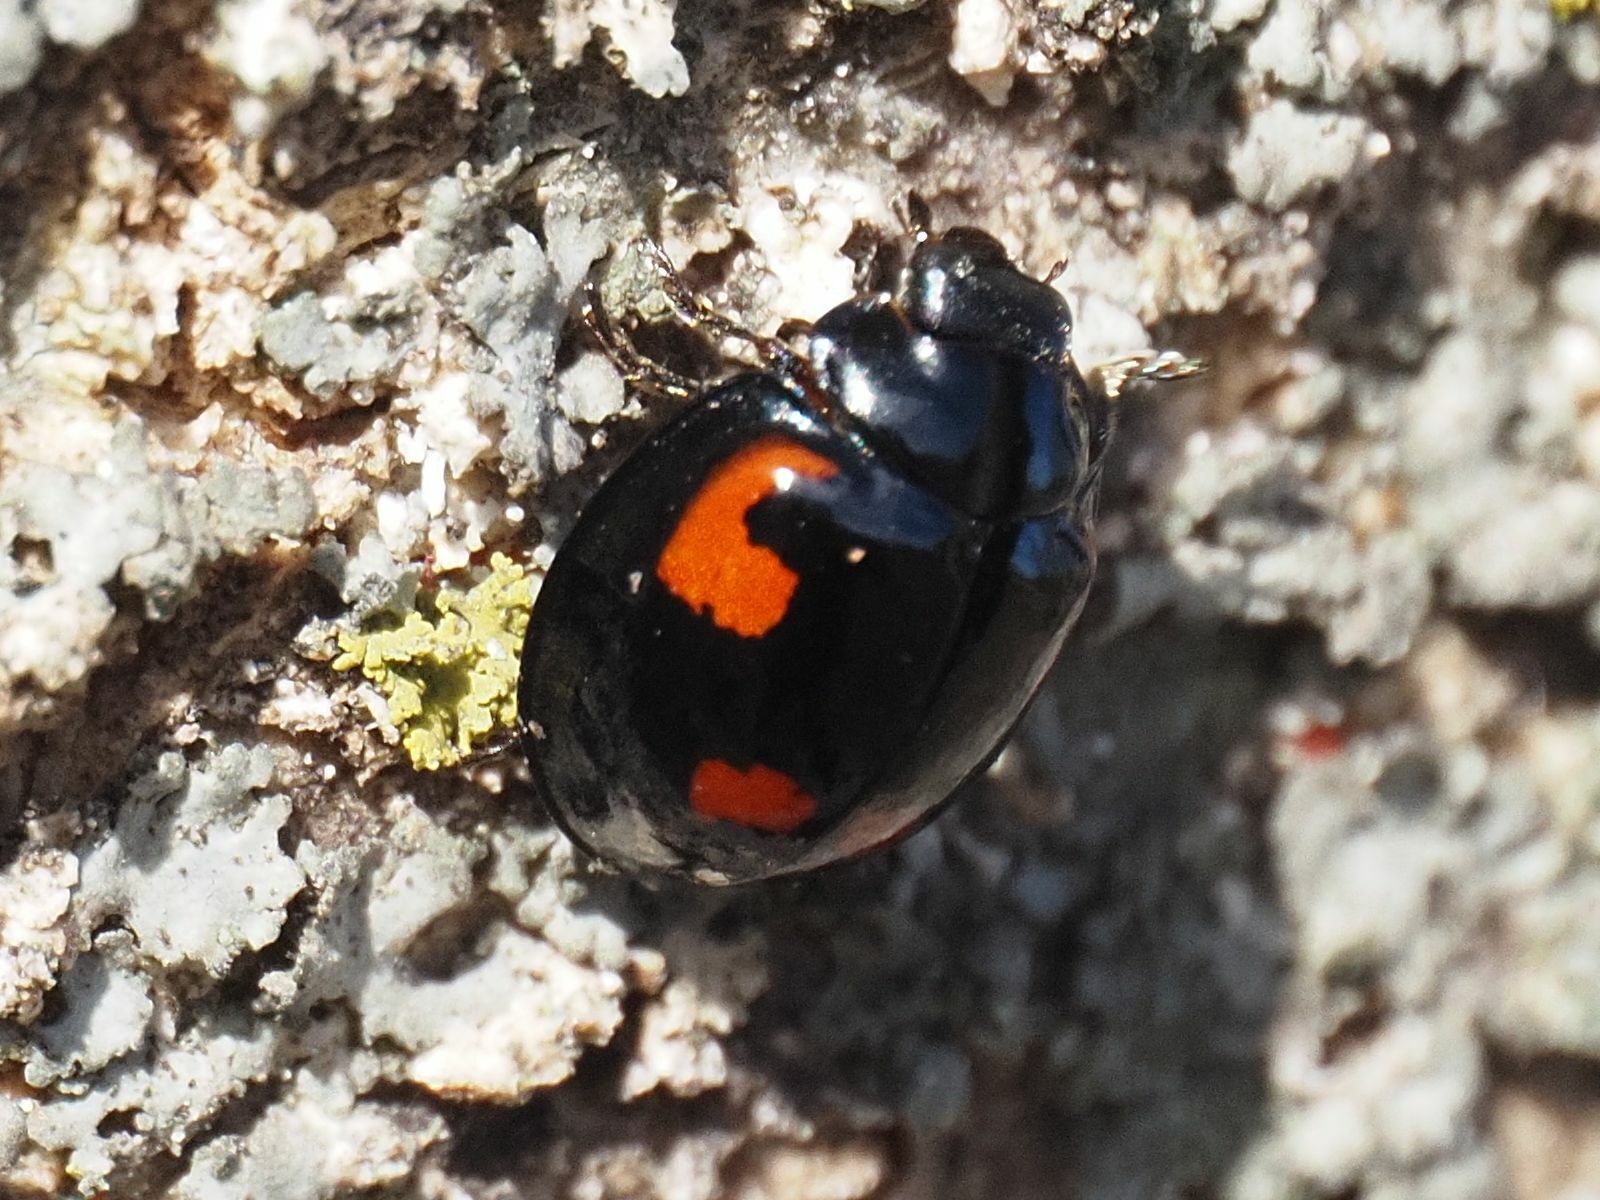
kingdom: Animalia
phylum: Arthropoda
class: Insecta
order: Coleoptera
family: Coccinellidae
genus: Brumus
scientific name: Brumus quadripustulatus
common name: Ladybird beetle
